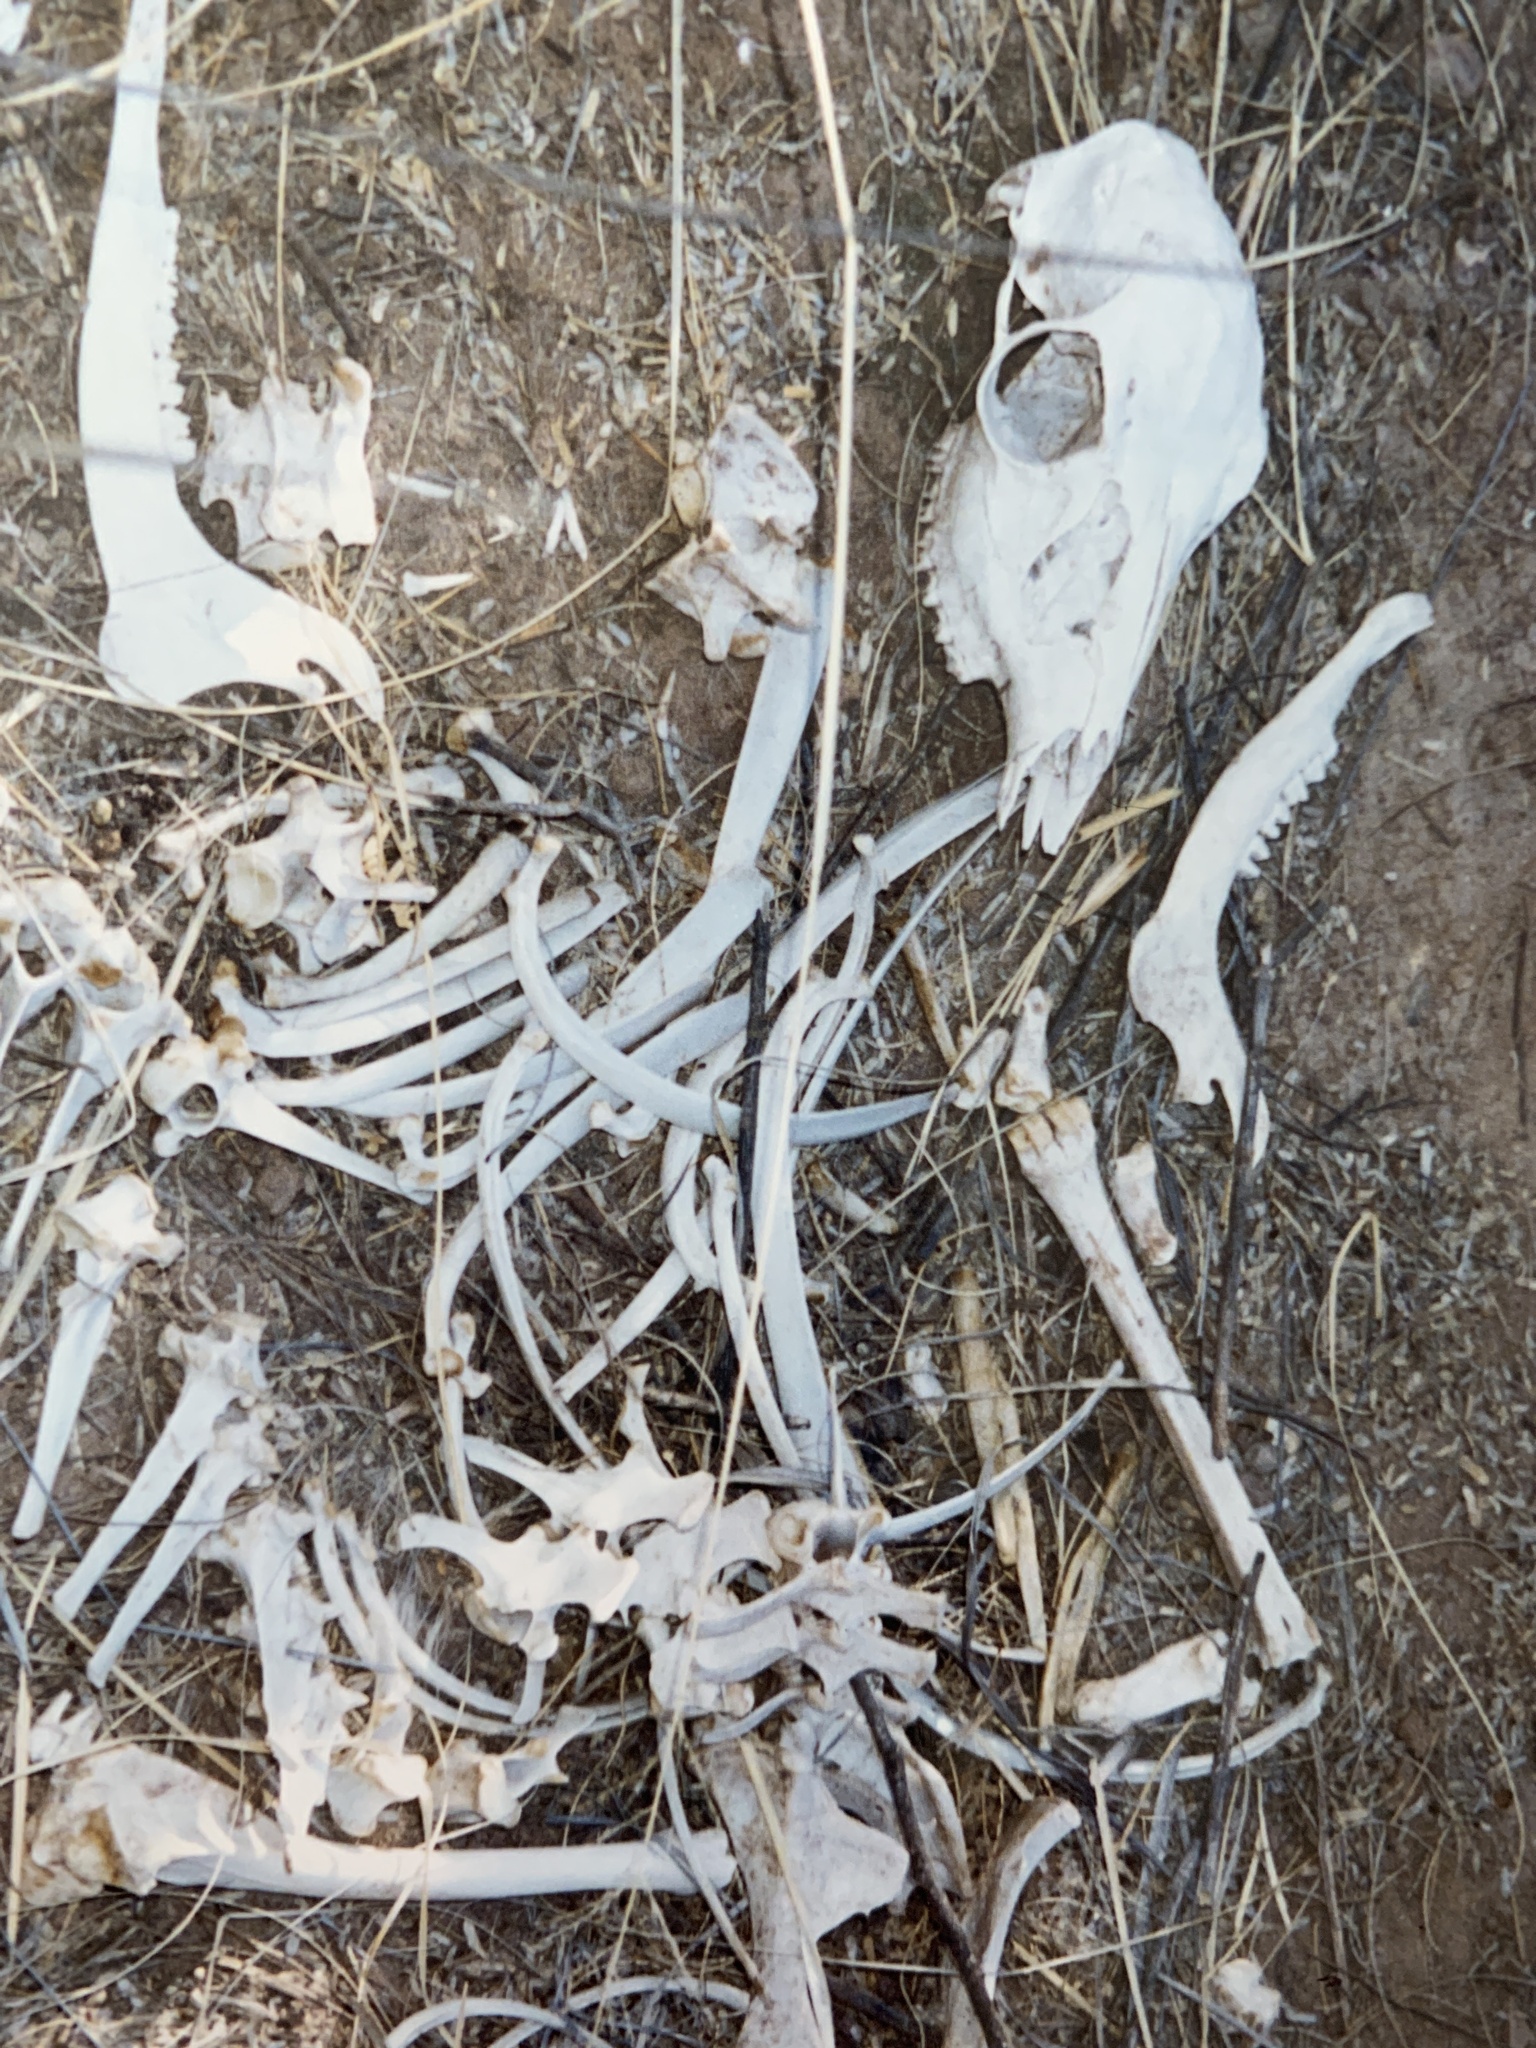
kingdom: Animalia
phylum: Chordata
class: Mammalia
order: Artiodactyla
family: Cervidae
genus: Odocoileus
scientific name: Odocoileus virginianus
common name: White-tailed deer
